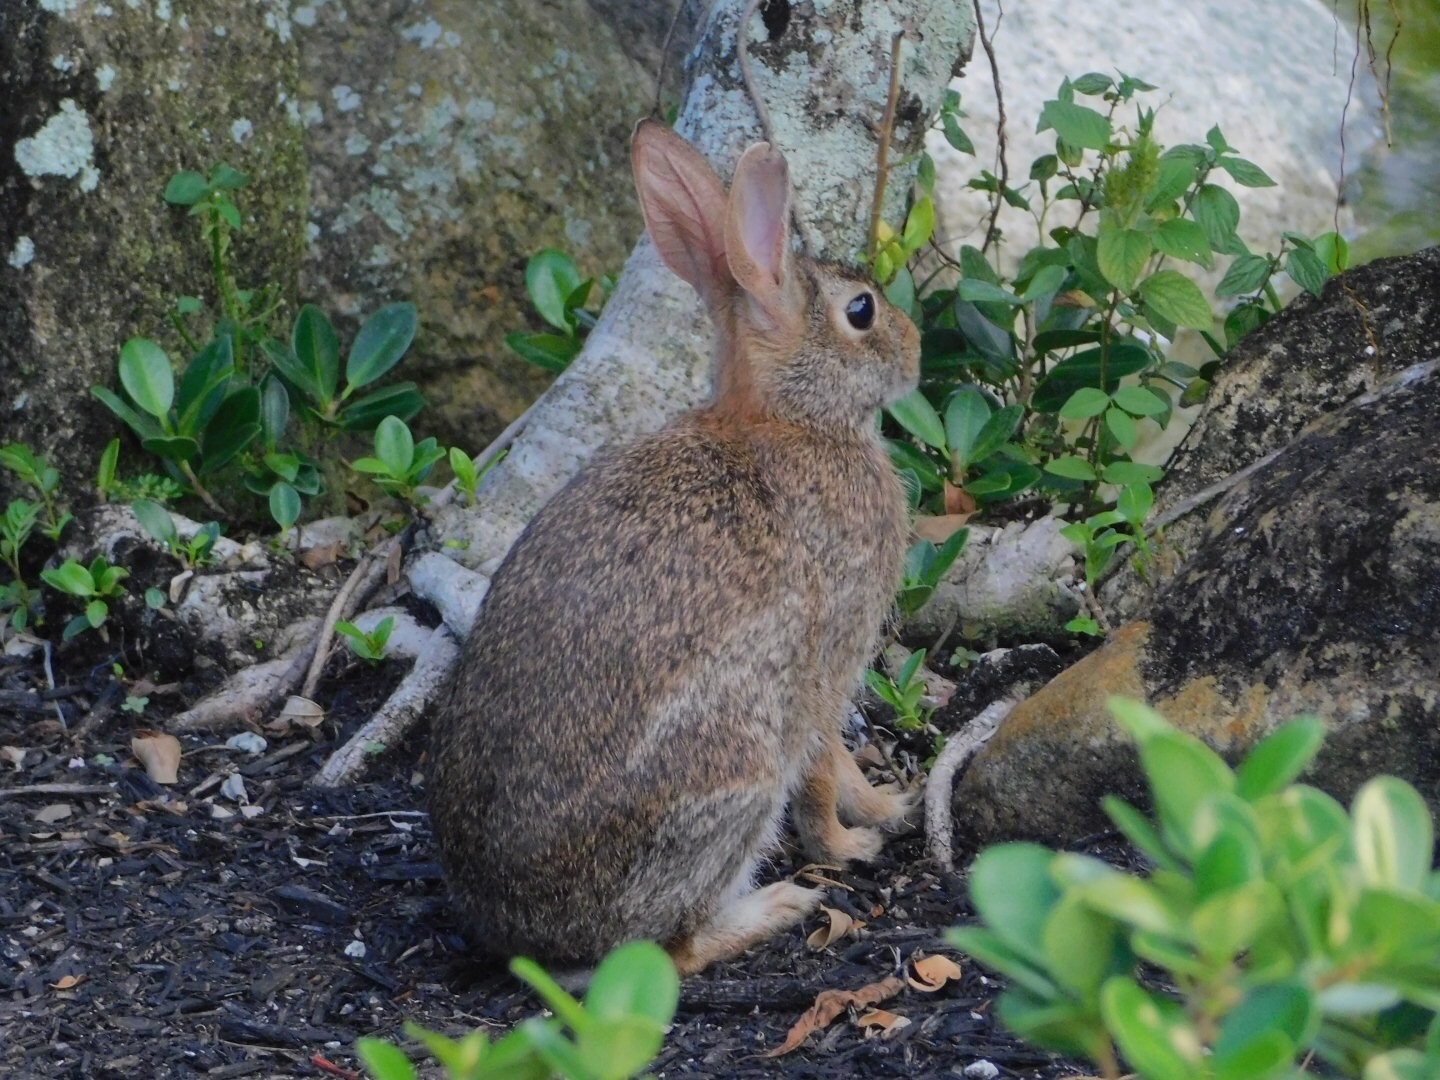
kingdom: Animalia
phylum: Chordata
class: Mammalia
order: Lagomorpha
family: Leporidae
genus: Sylvilagus
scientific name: Sylvilagus floridanus
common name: Eastern cottontail
